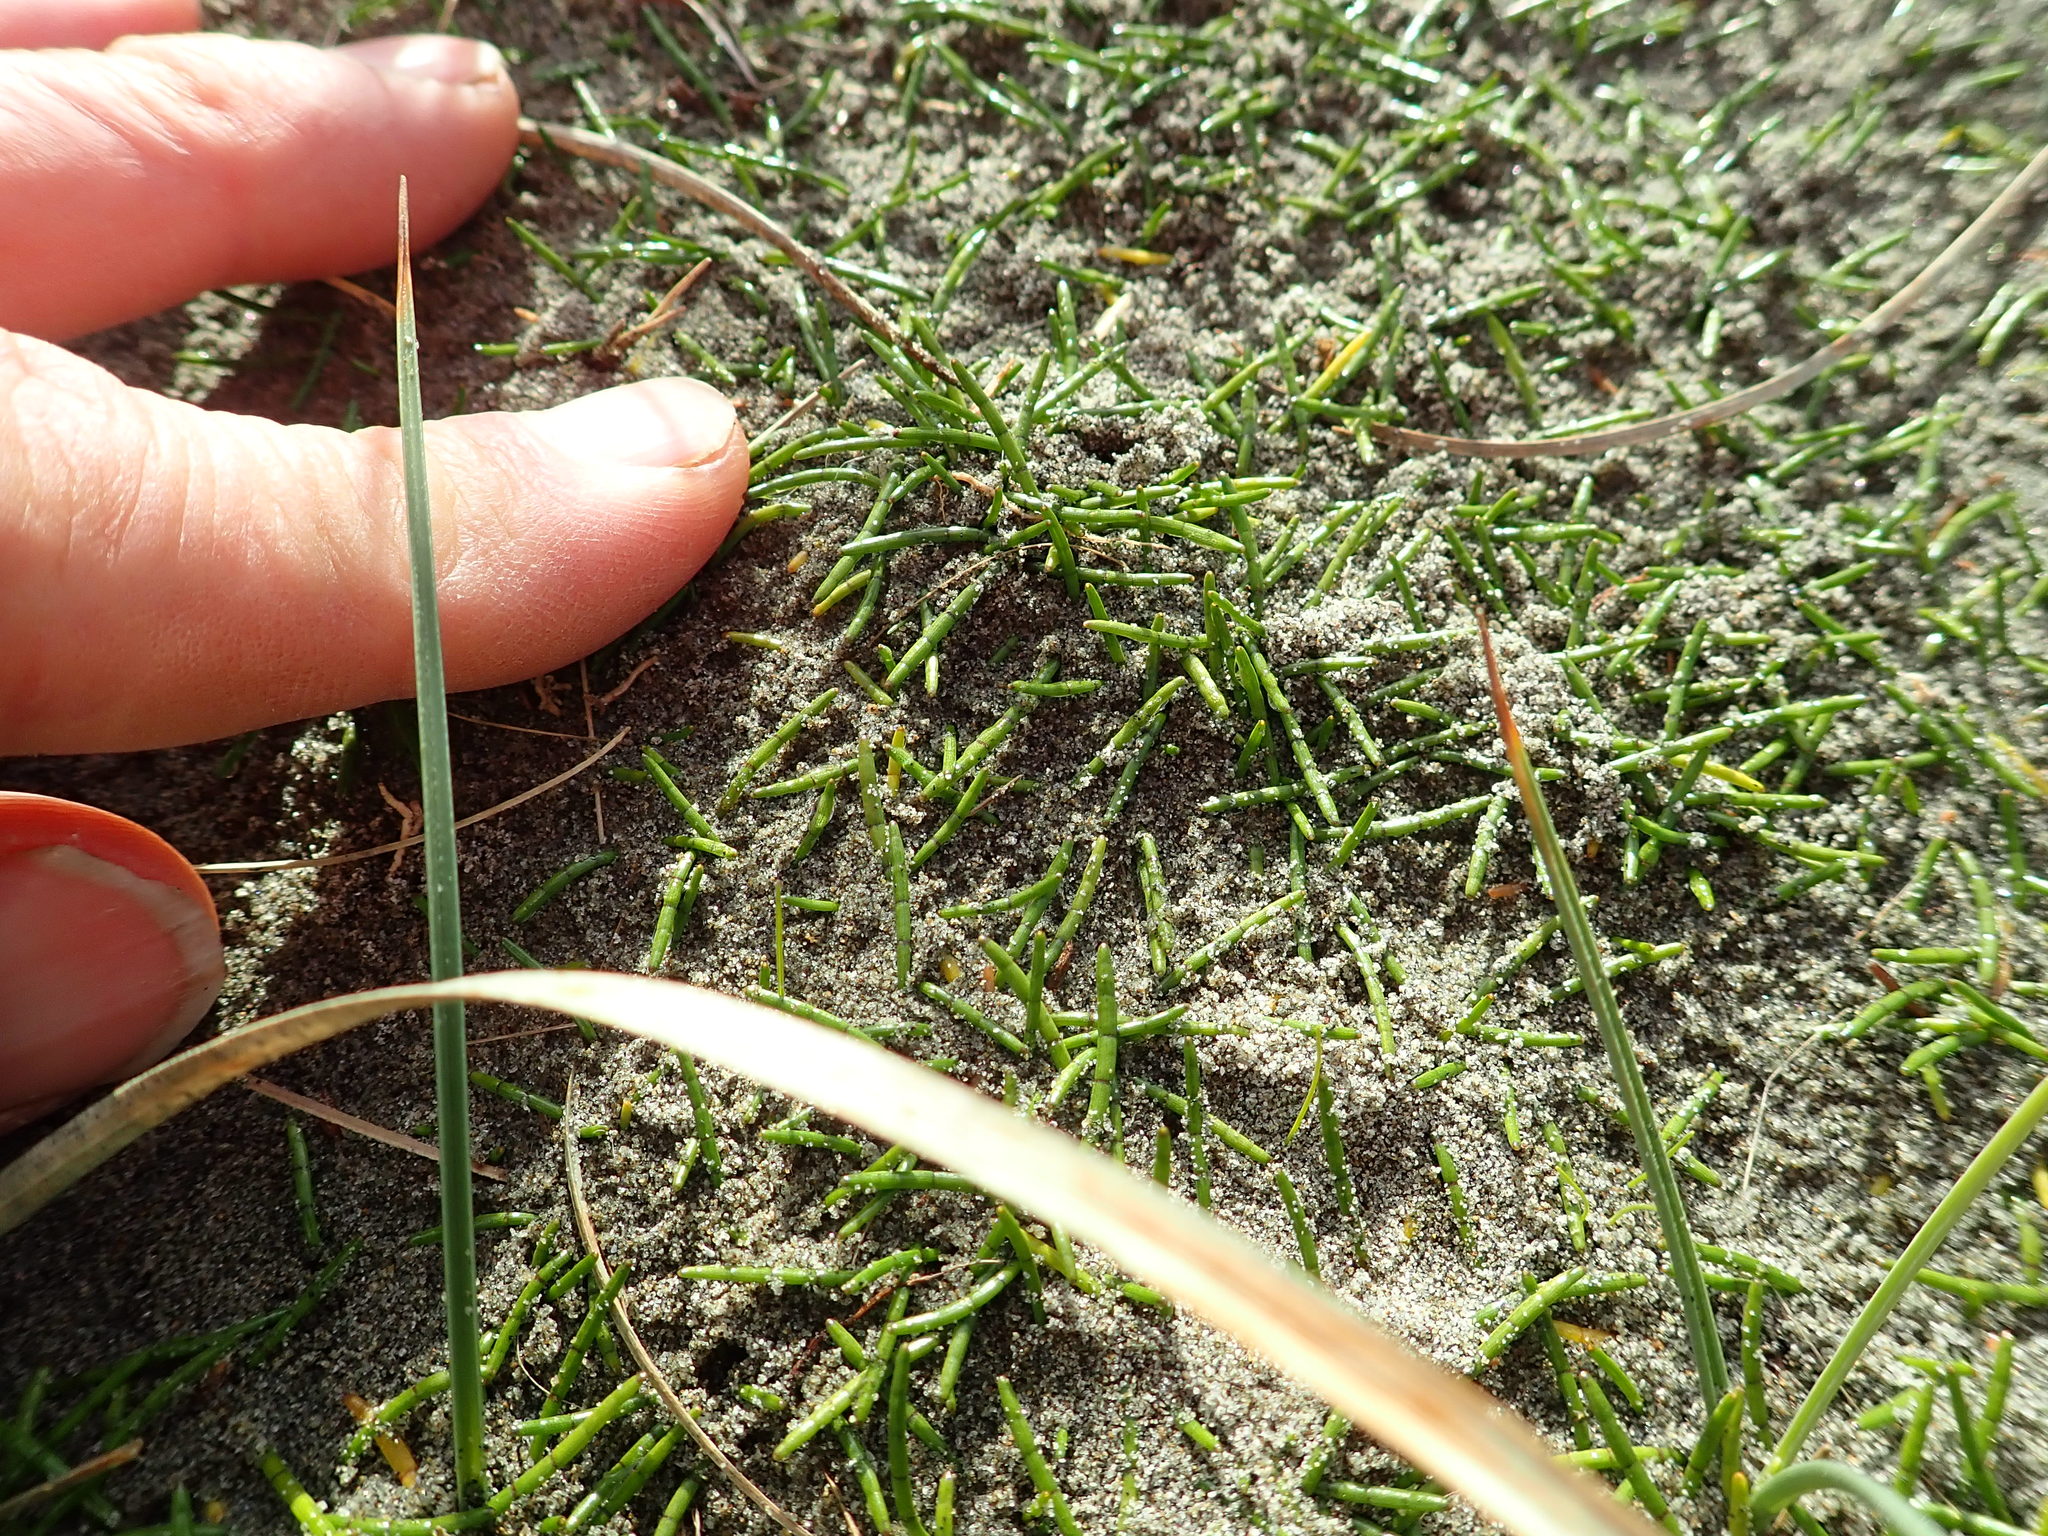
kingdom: Plantae
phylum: Tracheophyta
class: Magnoliopsida
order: Apiales
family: Apiaceae
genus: Lilaeopsis
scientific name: Lilaeopsis novae-zelandiae
